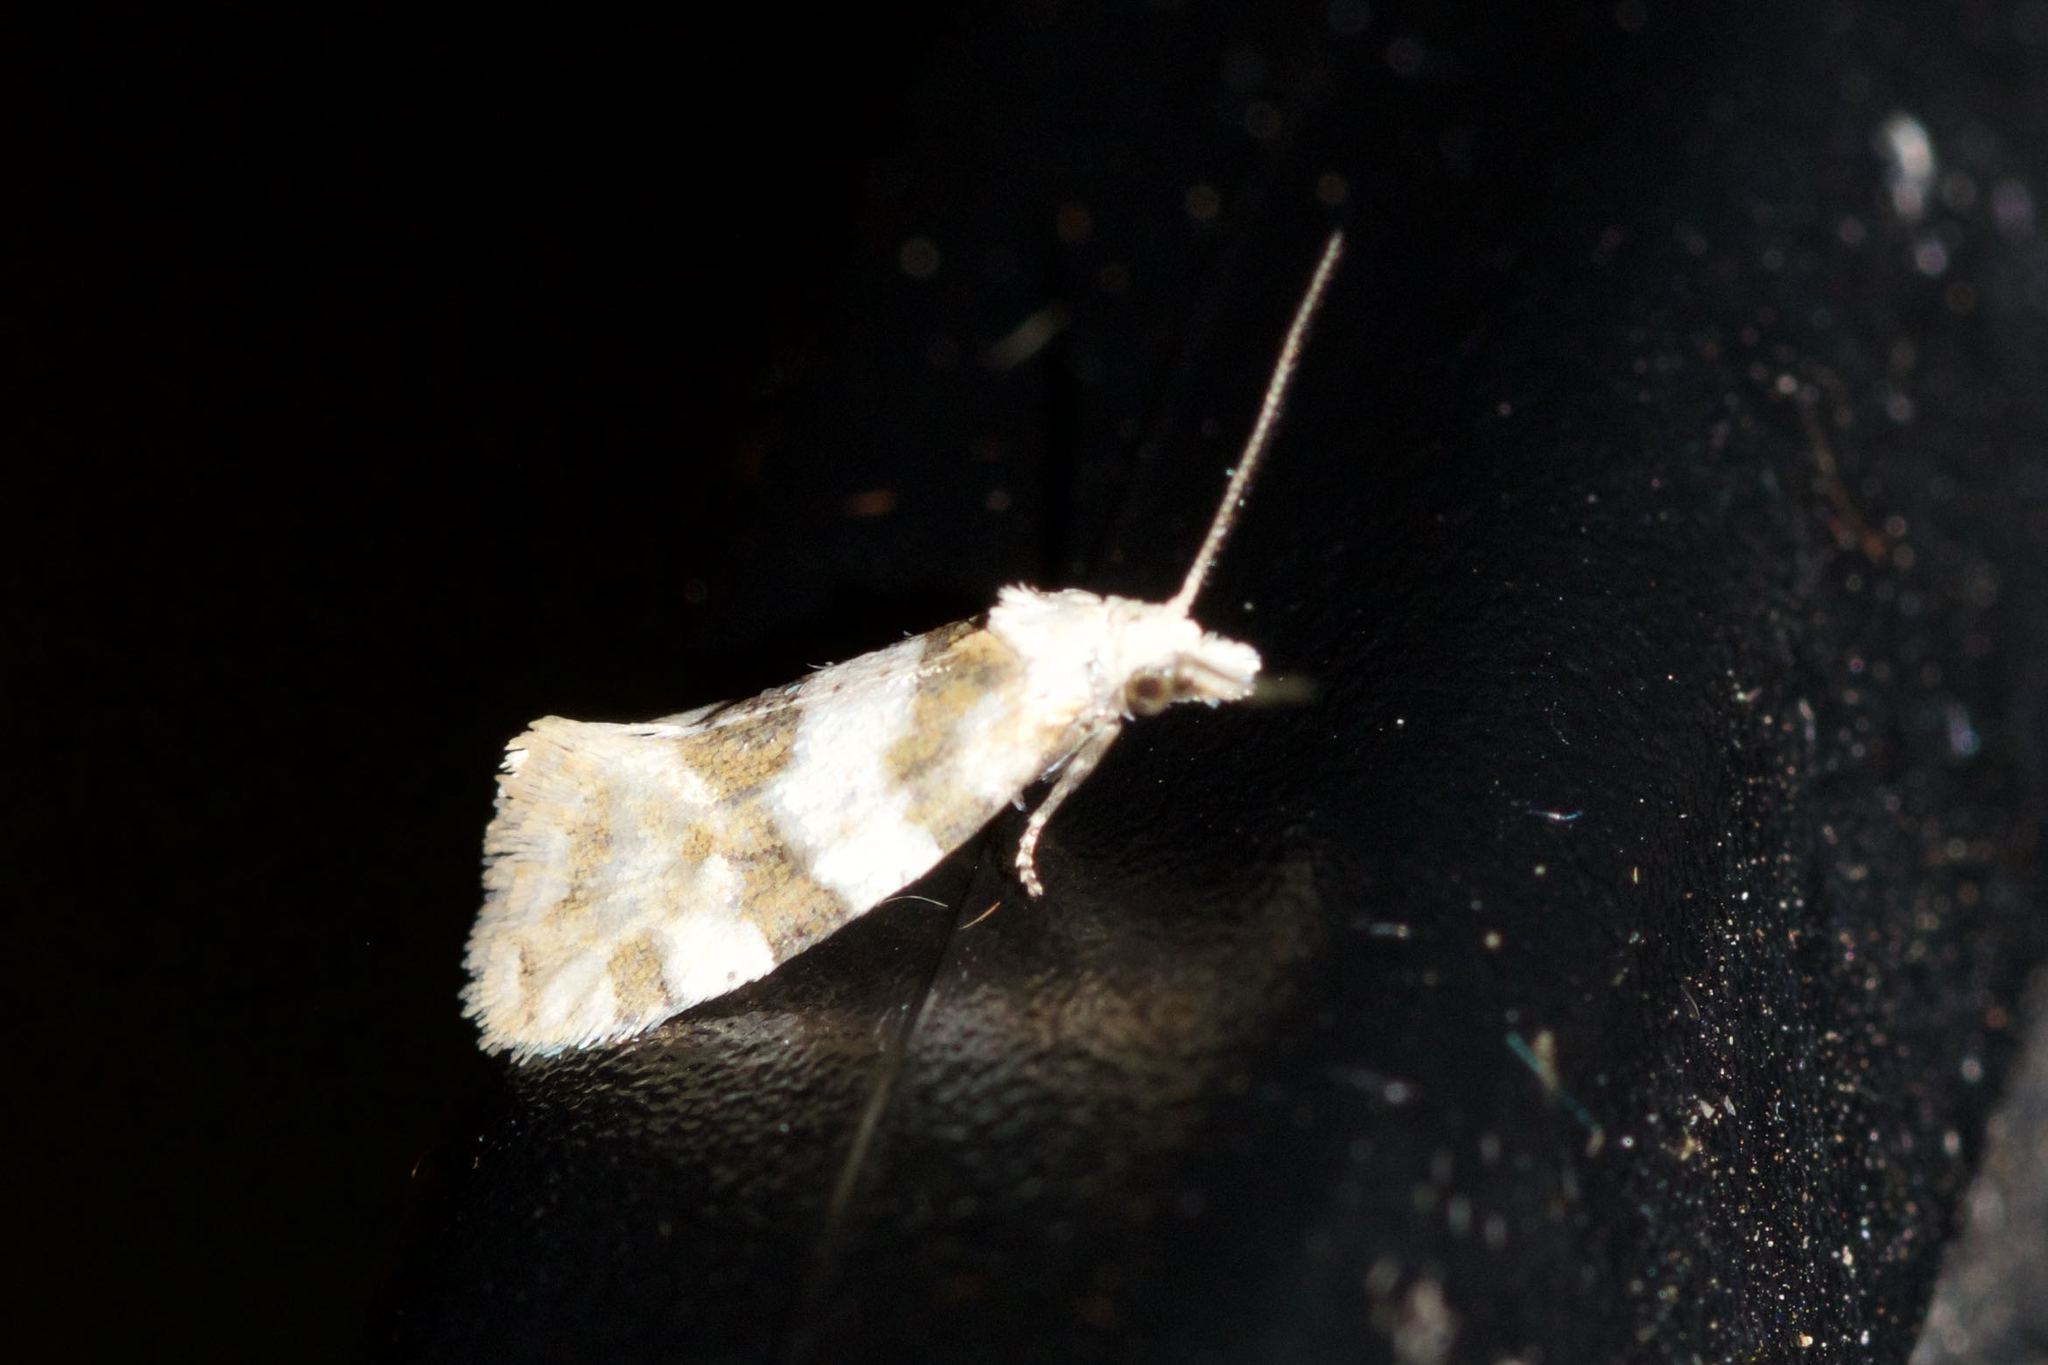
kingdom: Animalia
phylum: Arthropoda
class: Insecta
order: Lepidoptera
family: Tortricidae
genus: Aethes
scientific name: Aethes argentilimitana
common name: Silver-bordered aethes
